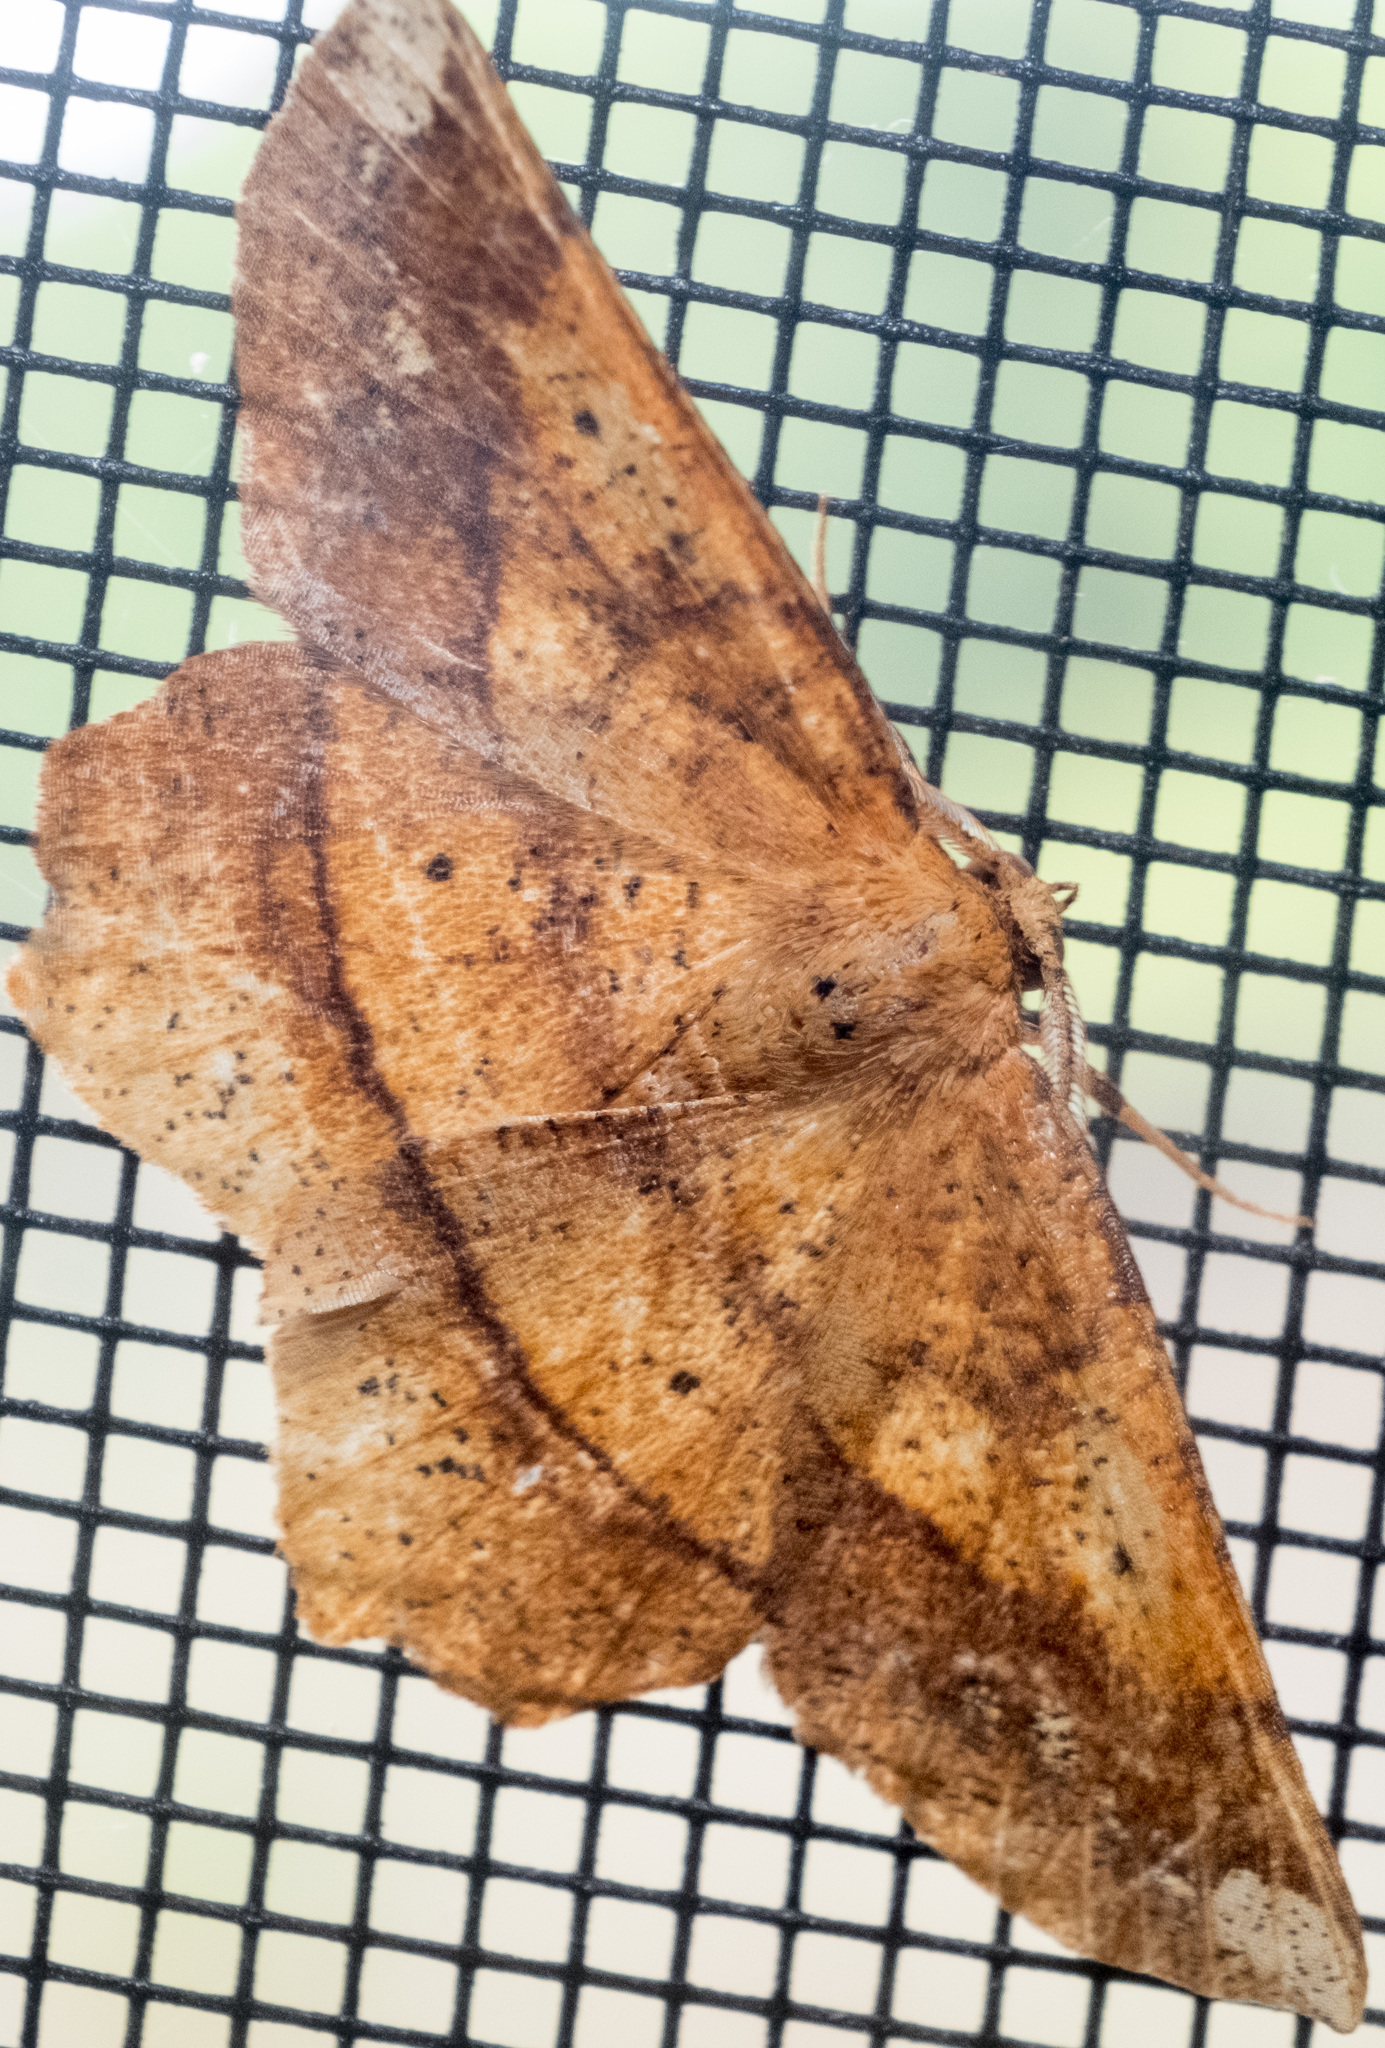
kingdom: Animalia
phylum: Arthropoda
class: Insecta
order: Lepidoptera
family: Geometridae
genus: Euchlaena
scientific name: Euchlaena amoenaria
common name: Deep yellow euchlaena
